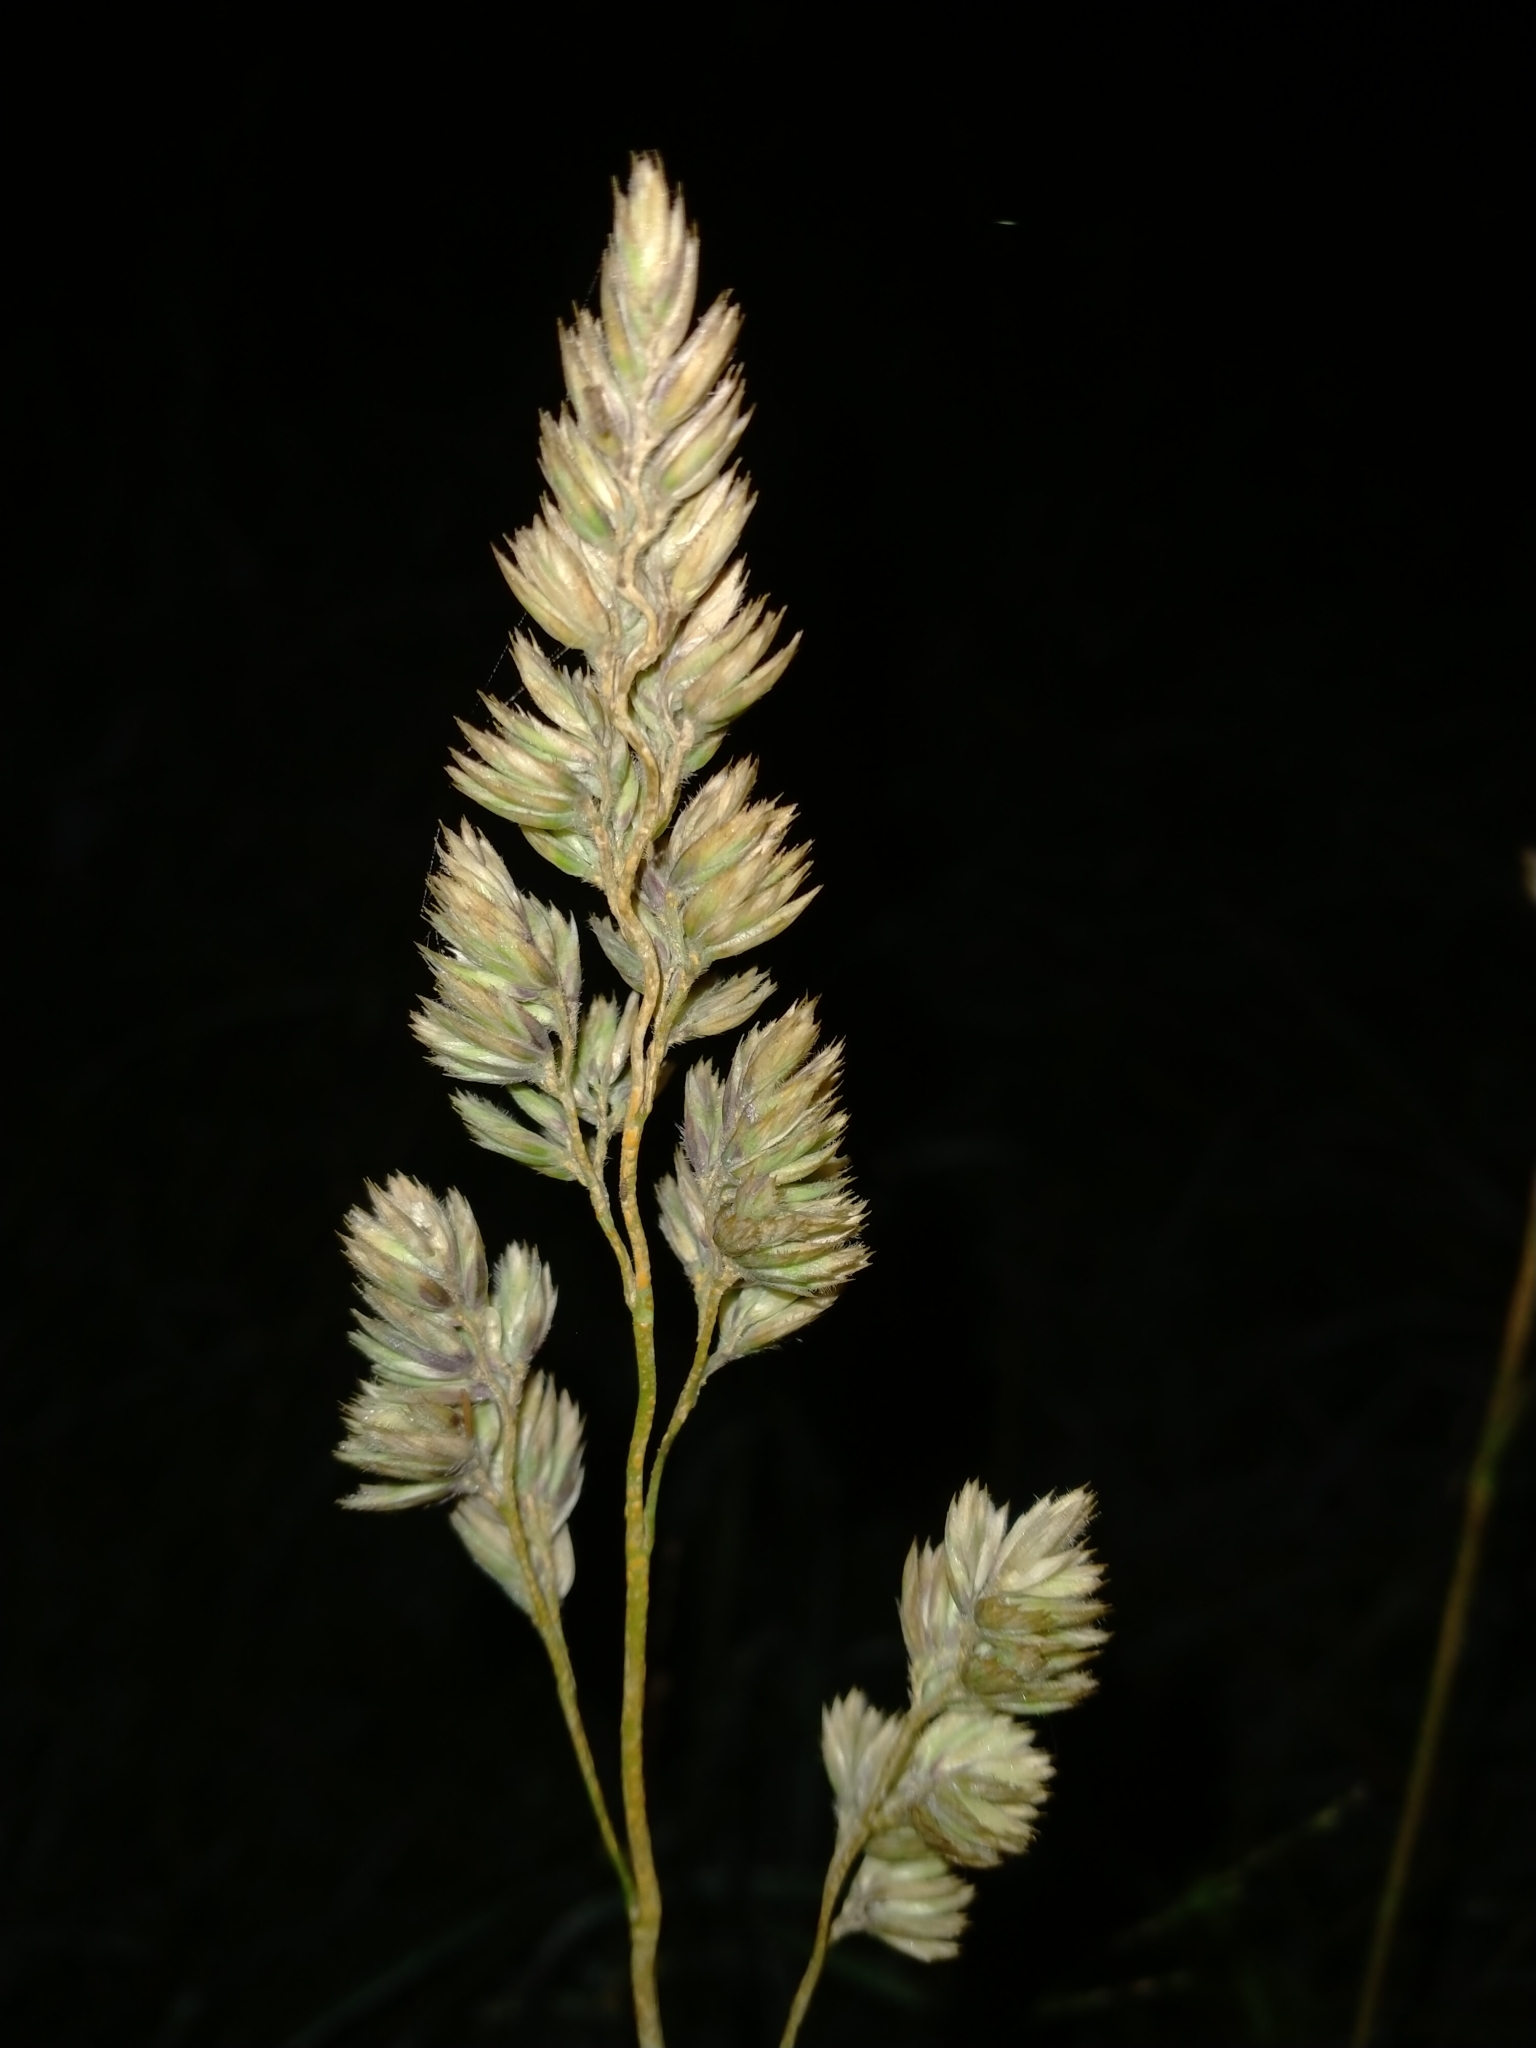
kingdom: Plantae
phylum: Tracheophyta
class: Liliopsida
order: Poales
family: Poaceae
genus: Dactylis
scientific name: Dactylis glomerata
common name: Orchardgrass
